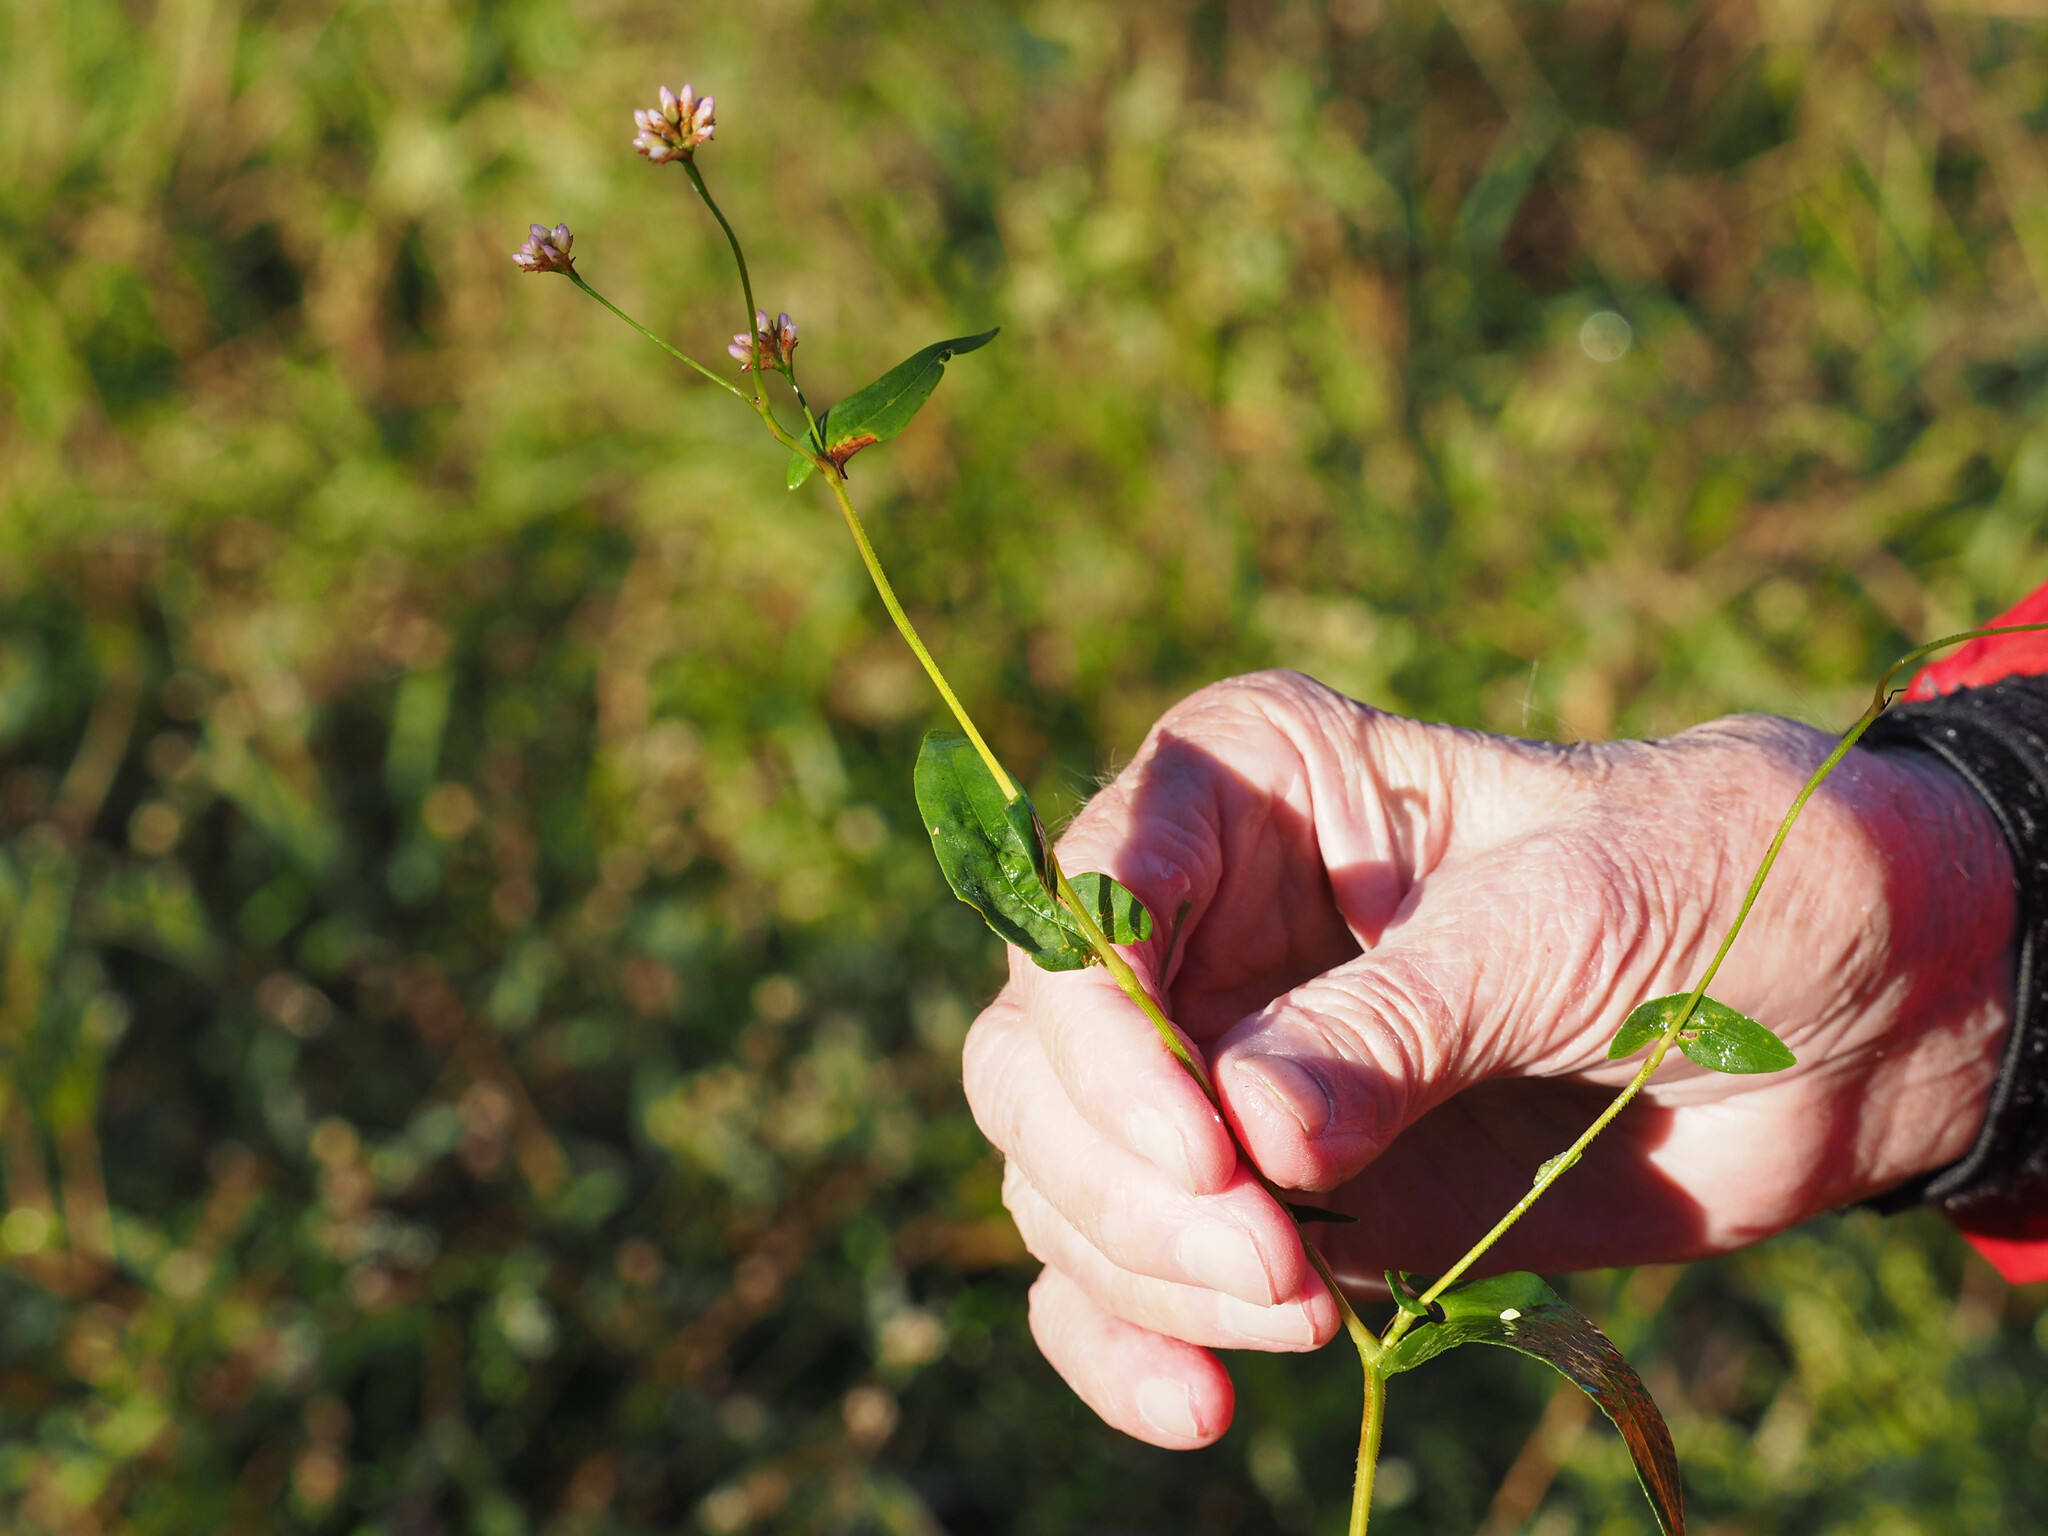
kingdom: Plantae
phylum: Tracheophyta
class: Magnoliopsida
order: Caryophyllales
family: Polygonaceae
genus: Persicaria
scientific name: Persicaria sagittata
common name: American tearthumb
